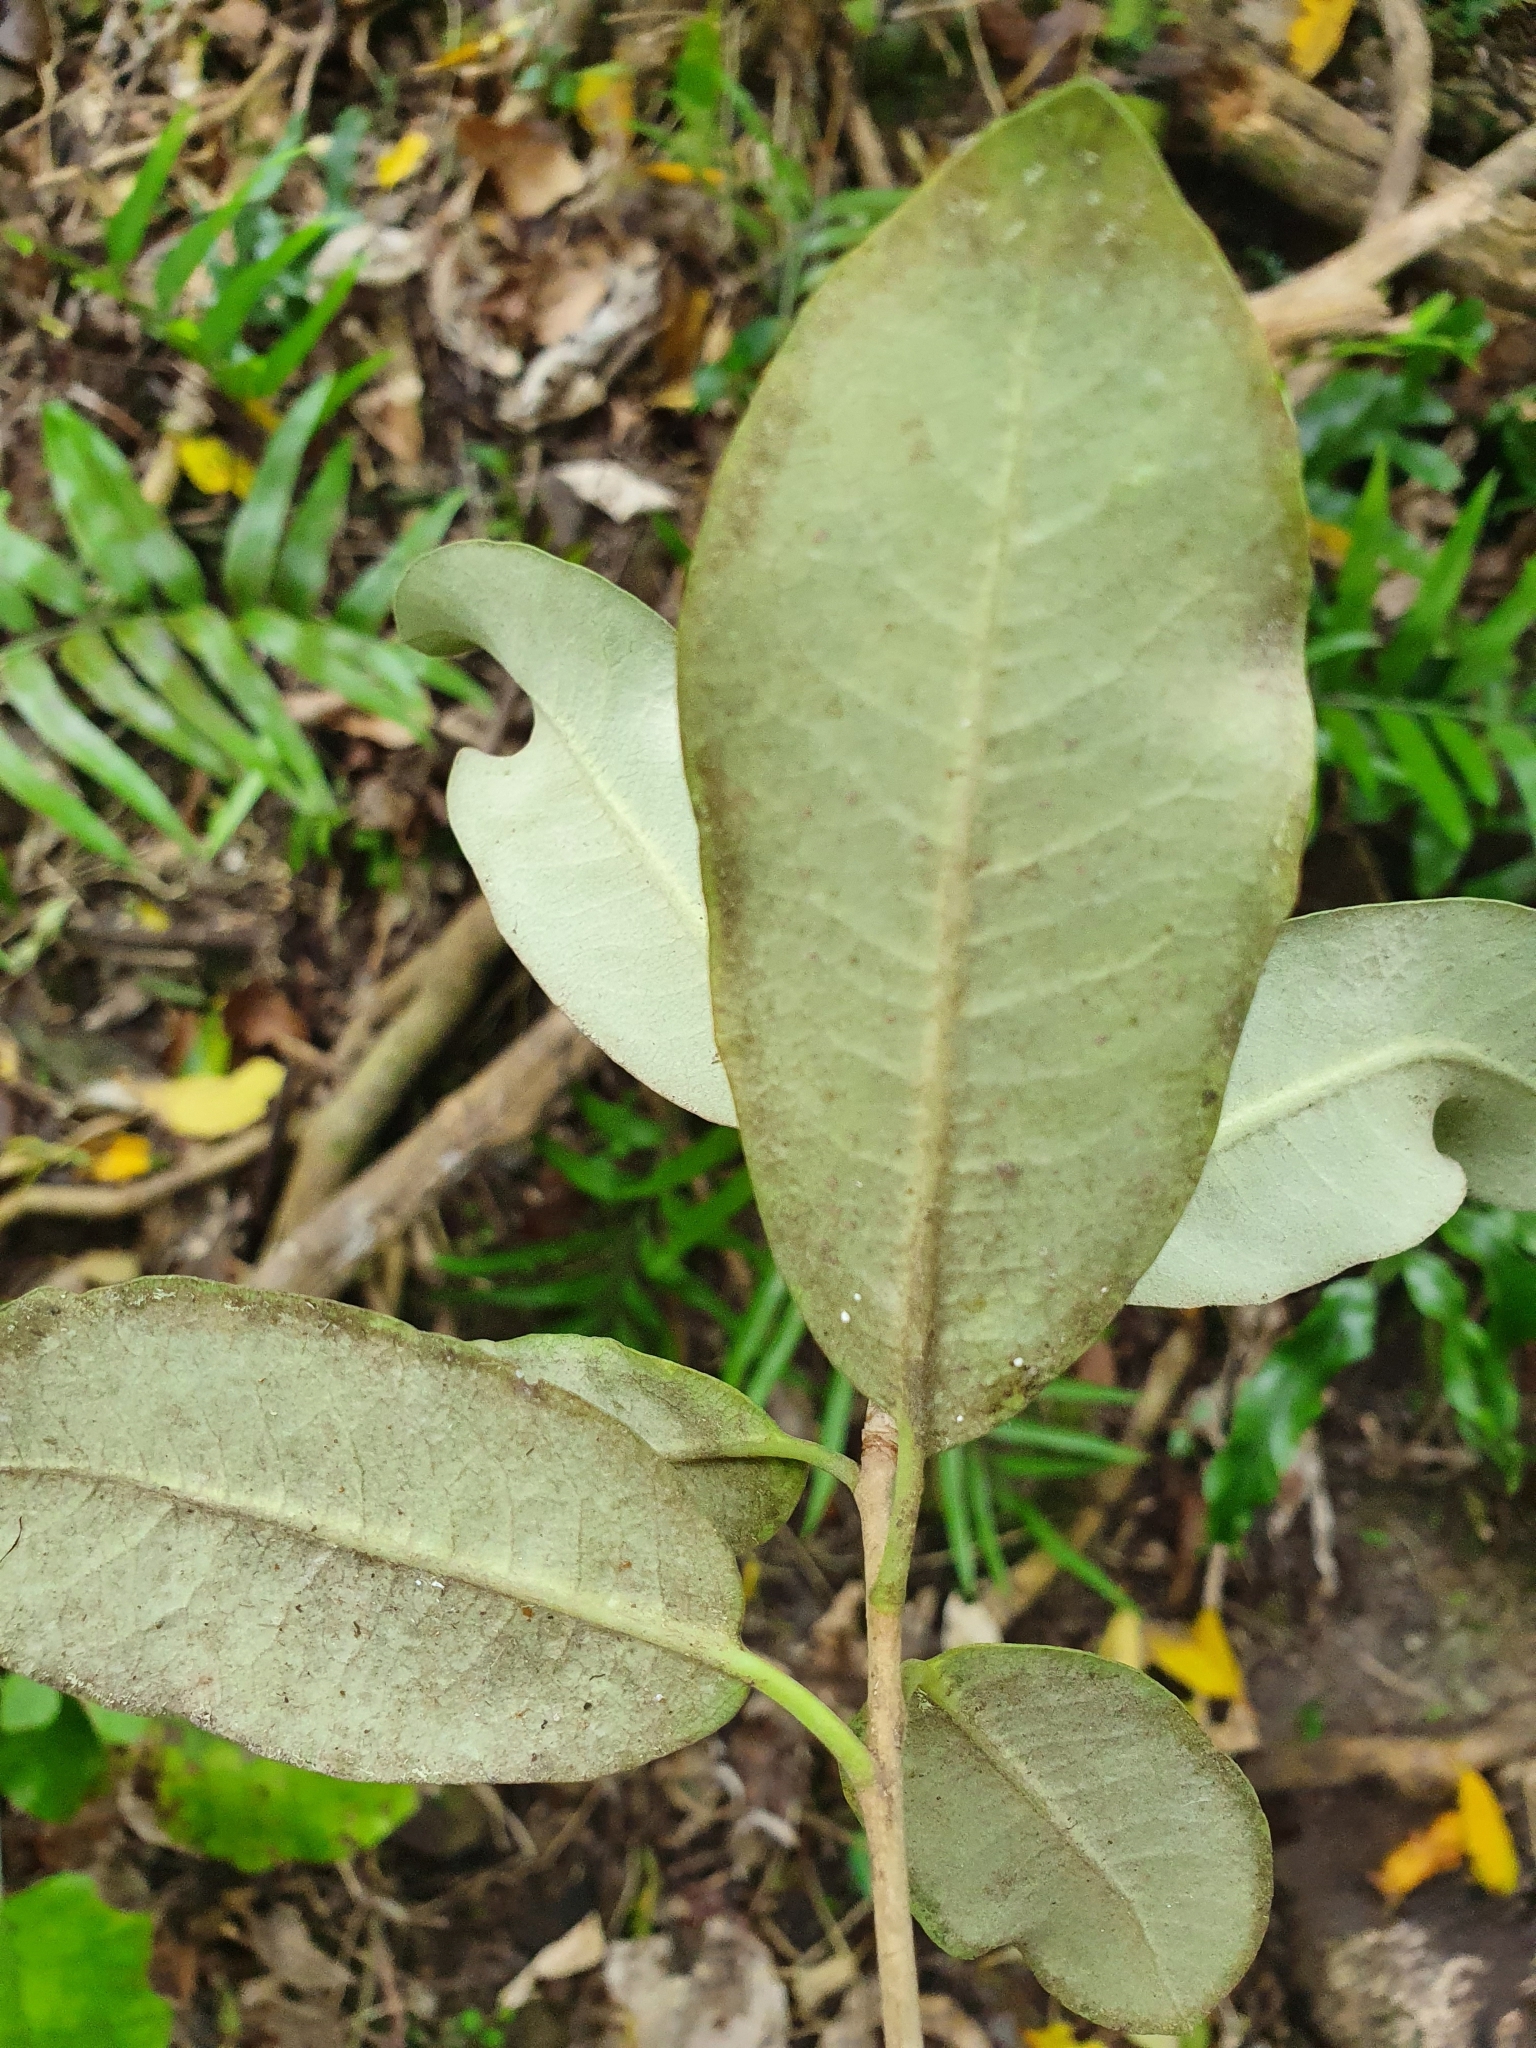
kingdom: Plantae
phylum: Tracheophyta
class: Magnoliopsida
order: Apiales
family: Pittosporaceae
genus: Pittosporum
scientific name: Pittosporum ralphii
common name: Ralph's desertwillow
